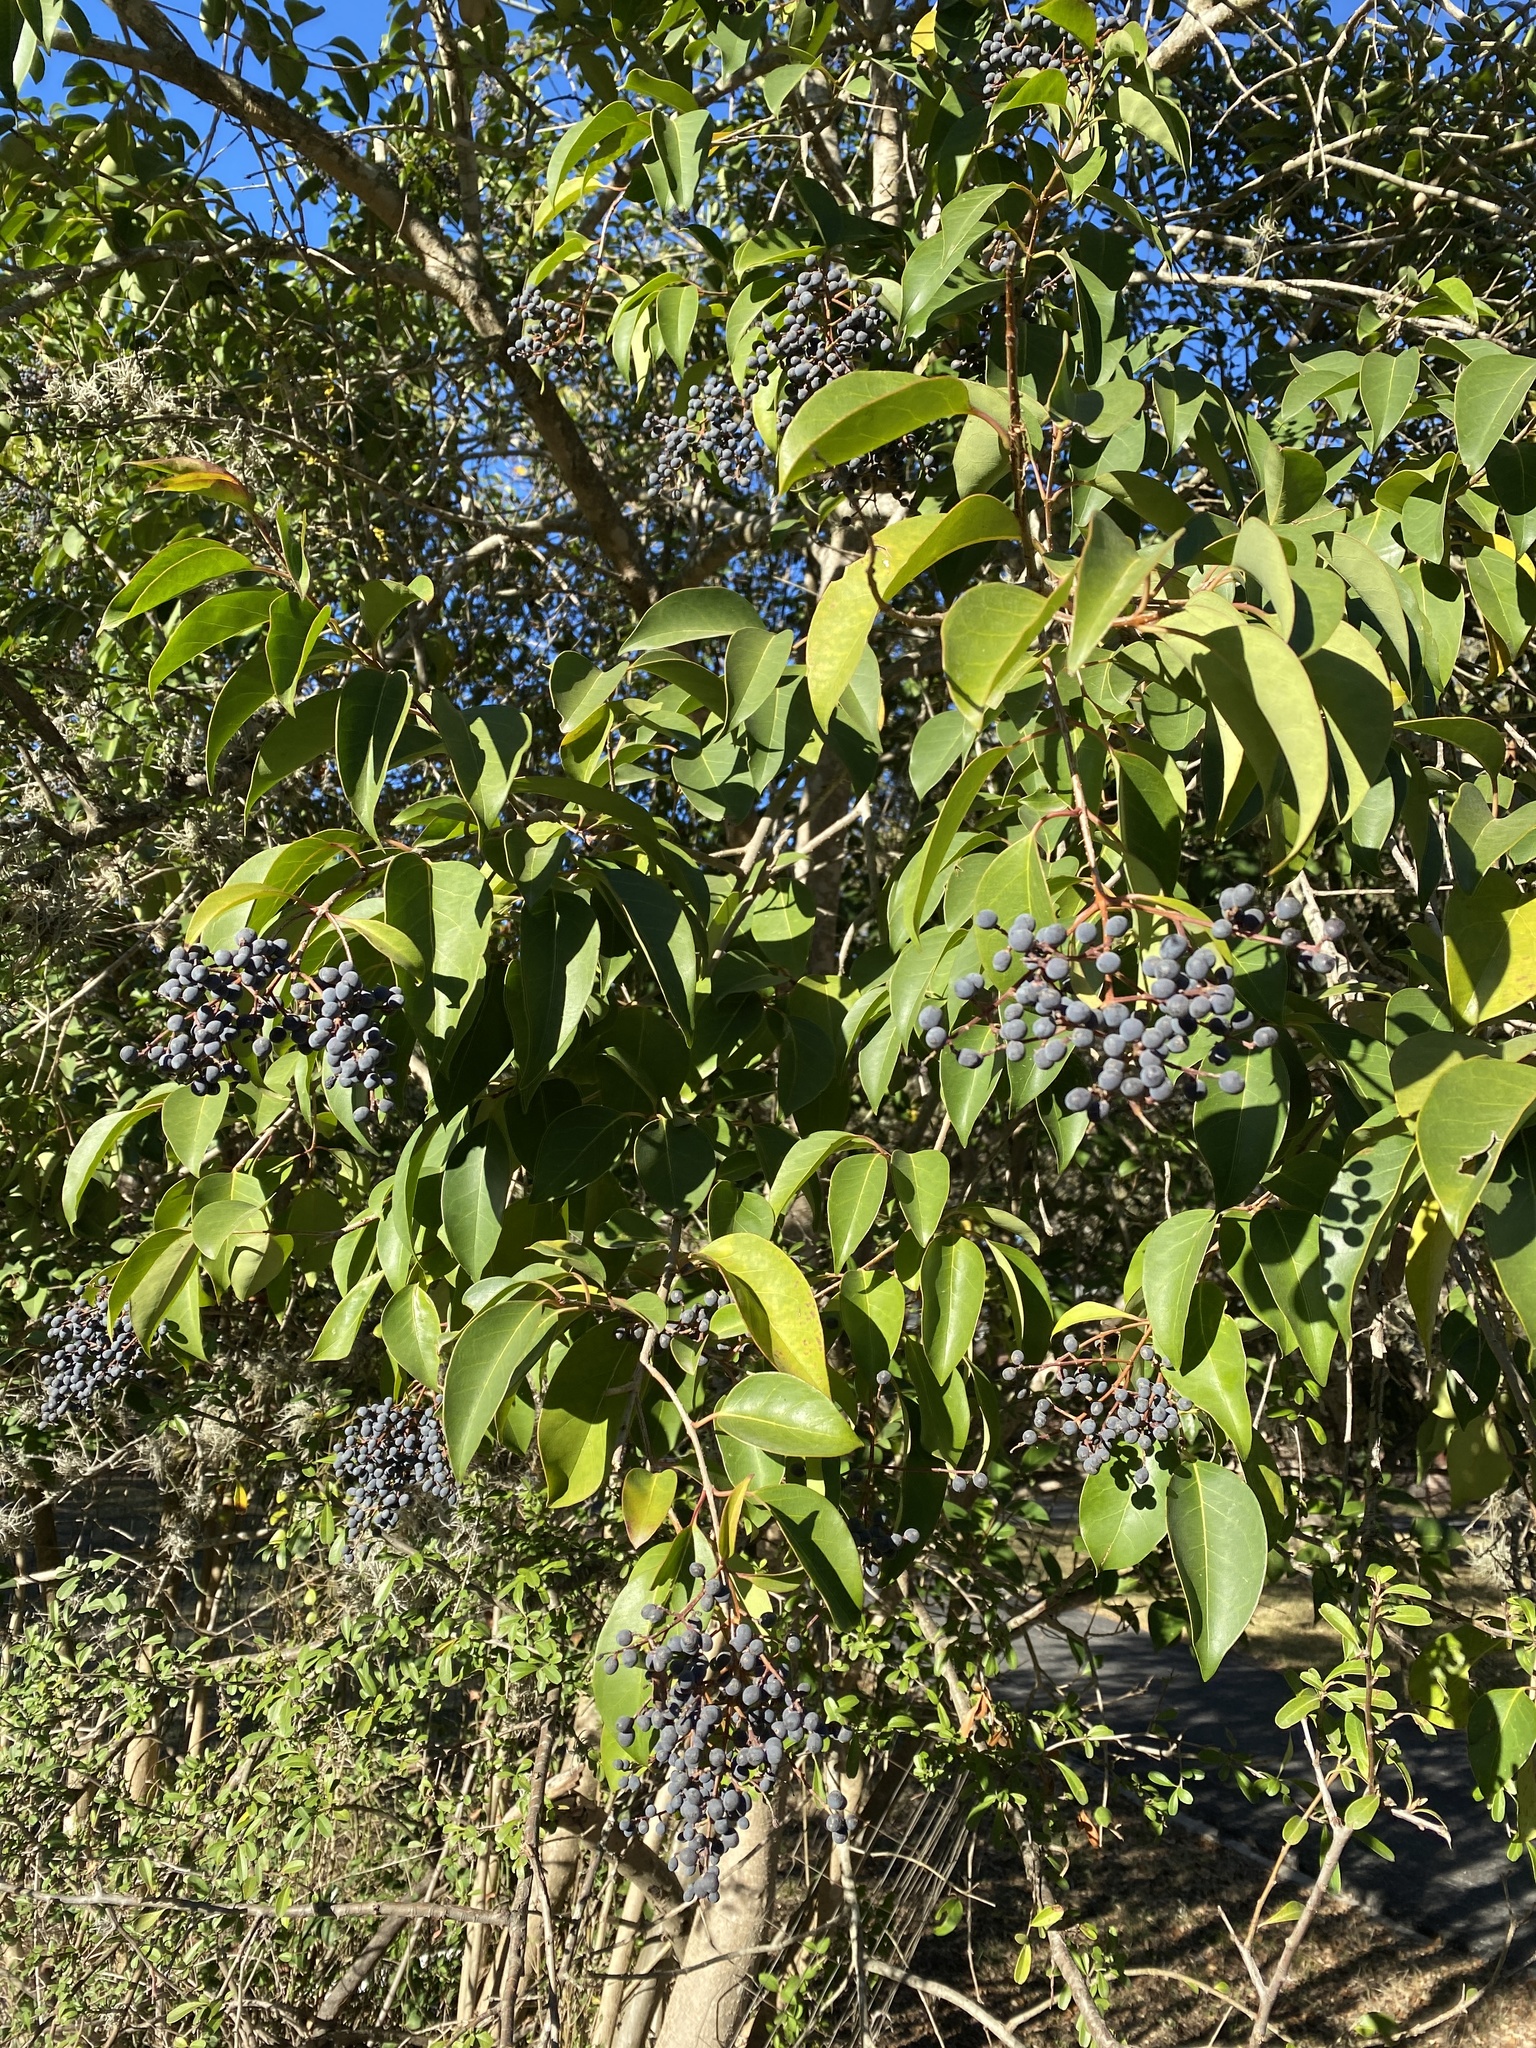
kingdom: Plantae
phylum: Tracheophyta
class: Magnoliopsida
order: Lamiales
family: Oleaceae
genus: Ligustrum
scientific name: Ligustrum lucidum
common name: Glossy privet
